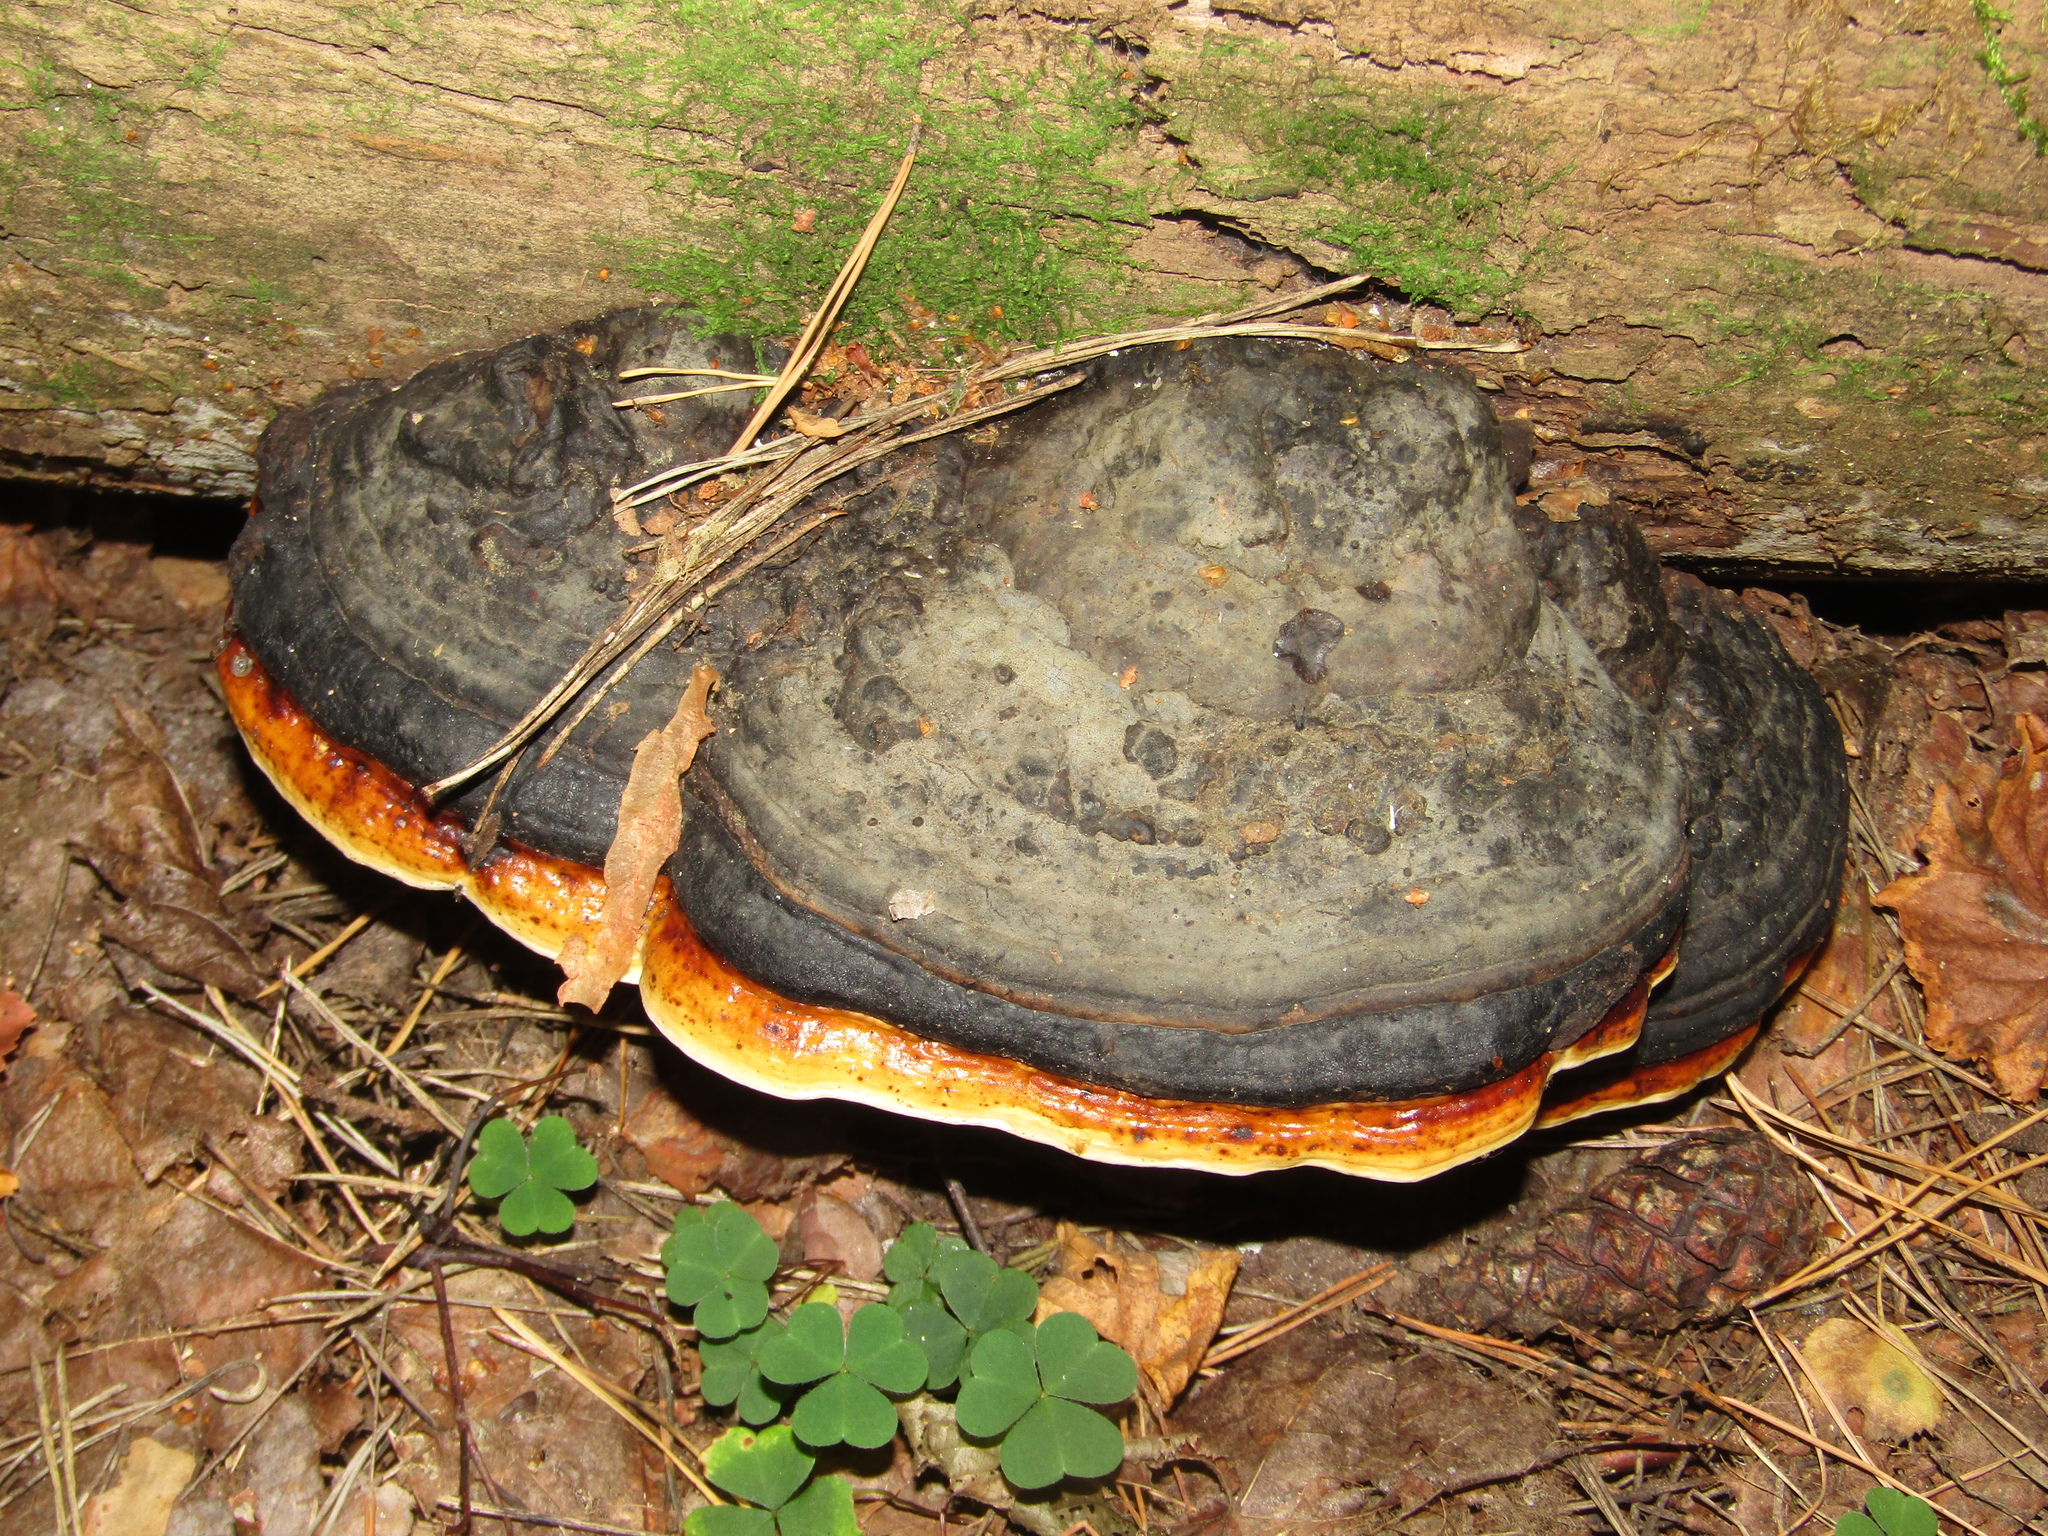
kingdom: Fungi
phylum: Basidiomycota
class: Agaricomycetes
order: Polyporales
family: Fomitopsidaceae
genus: Fomitopsis
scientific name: Fomitopsis pinicola
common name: Red-belted bracket
